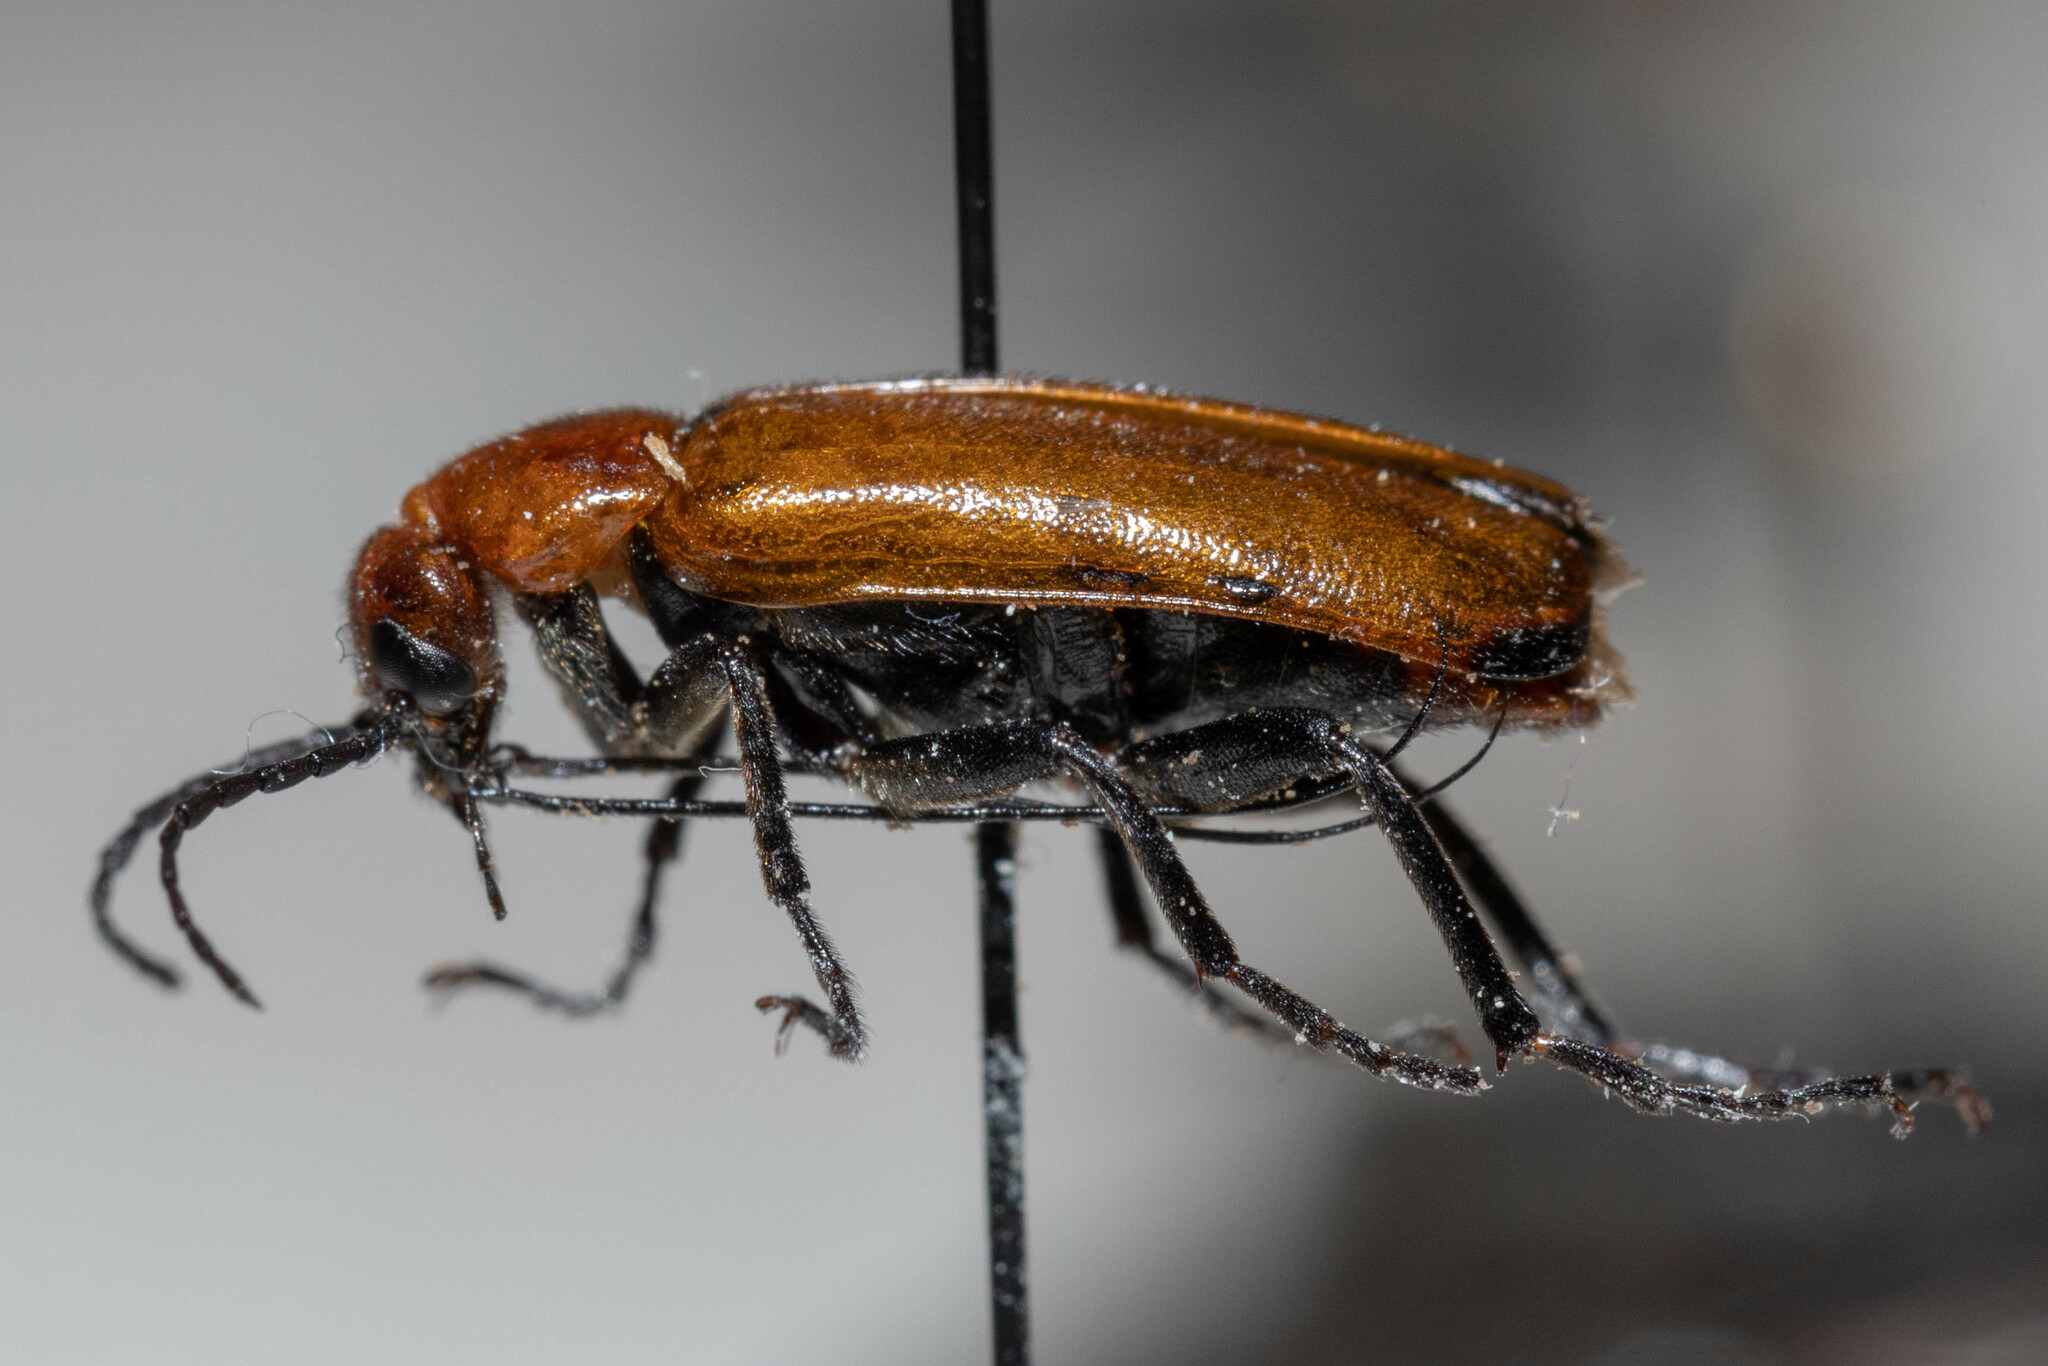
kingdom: Animalia
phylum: Arthropoda
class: Insecta
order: Coleoptera
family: Meloidae
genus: Nemognatha
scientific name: Nemognatha lutea
